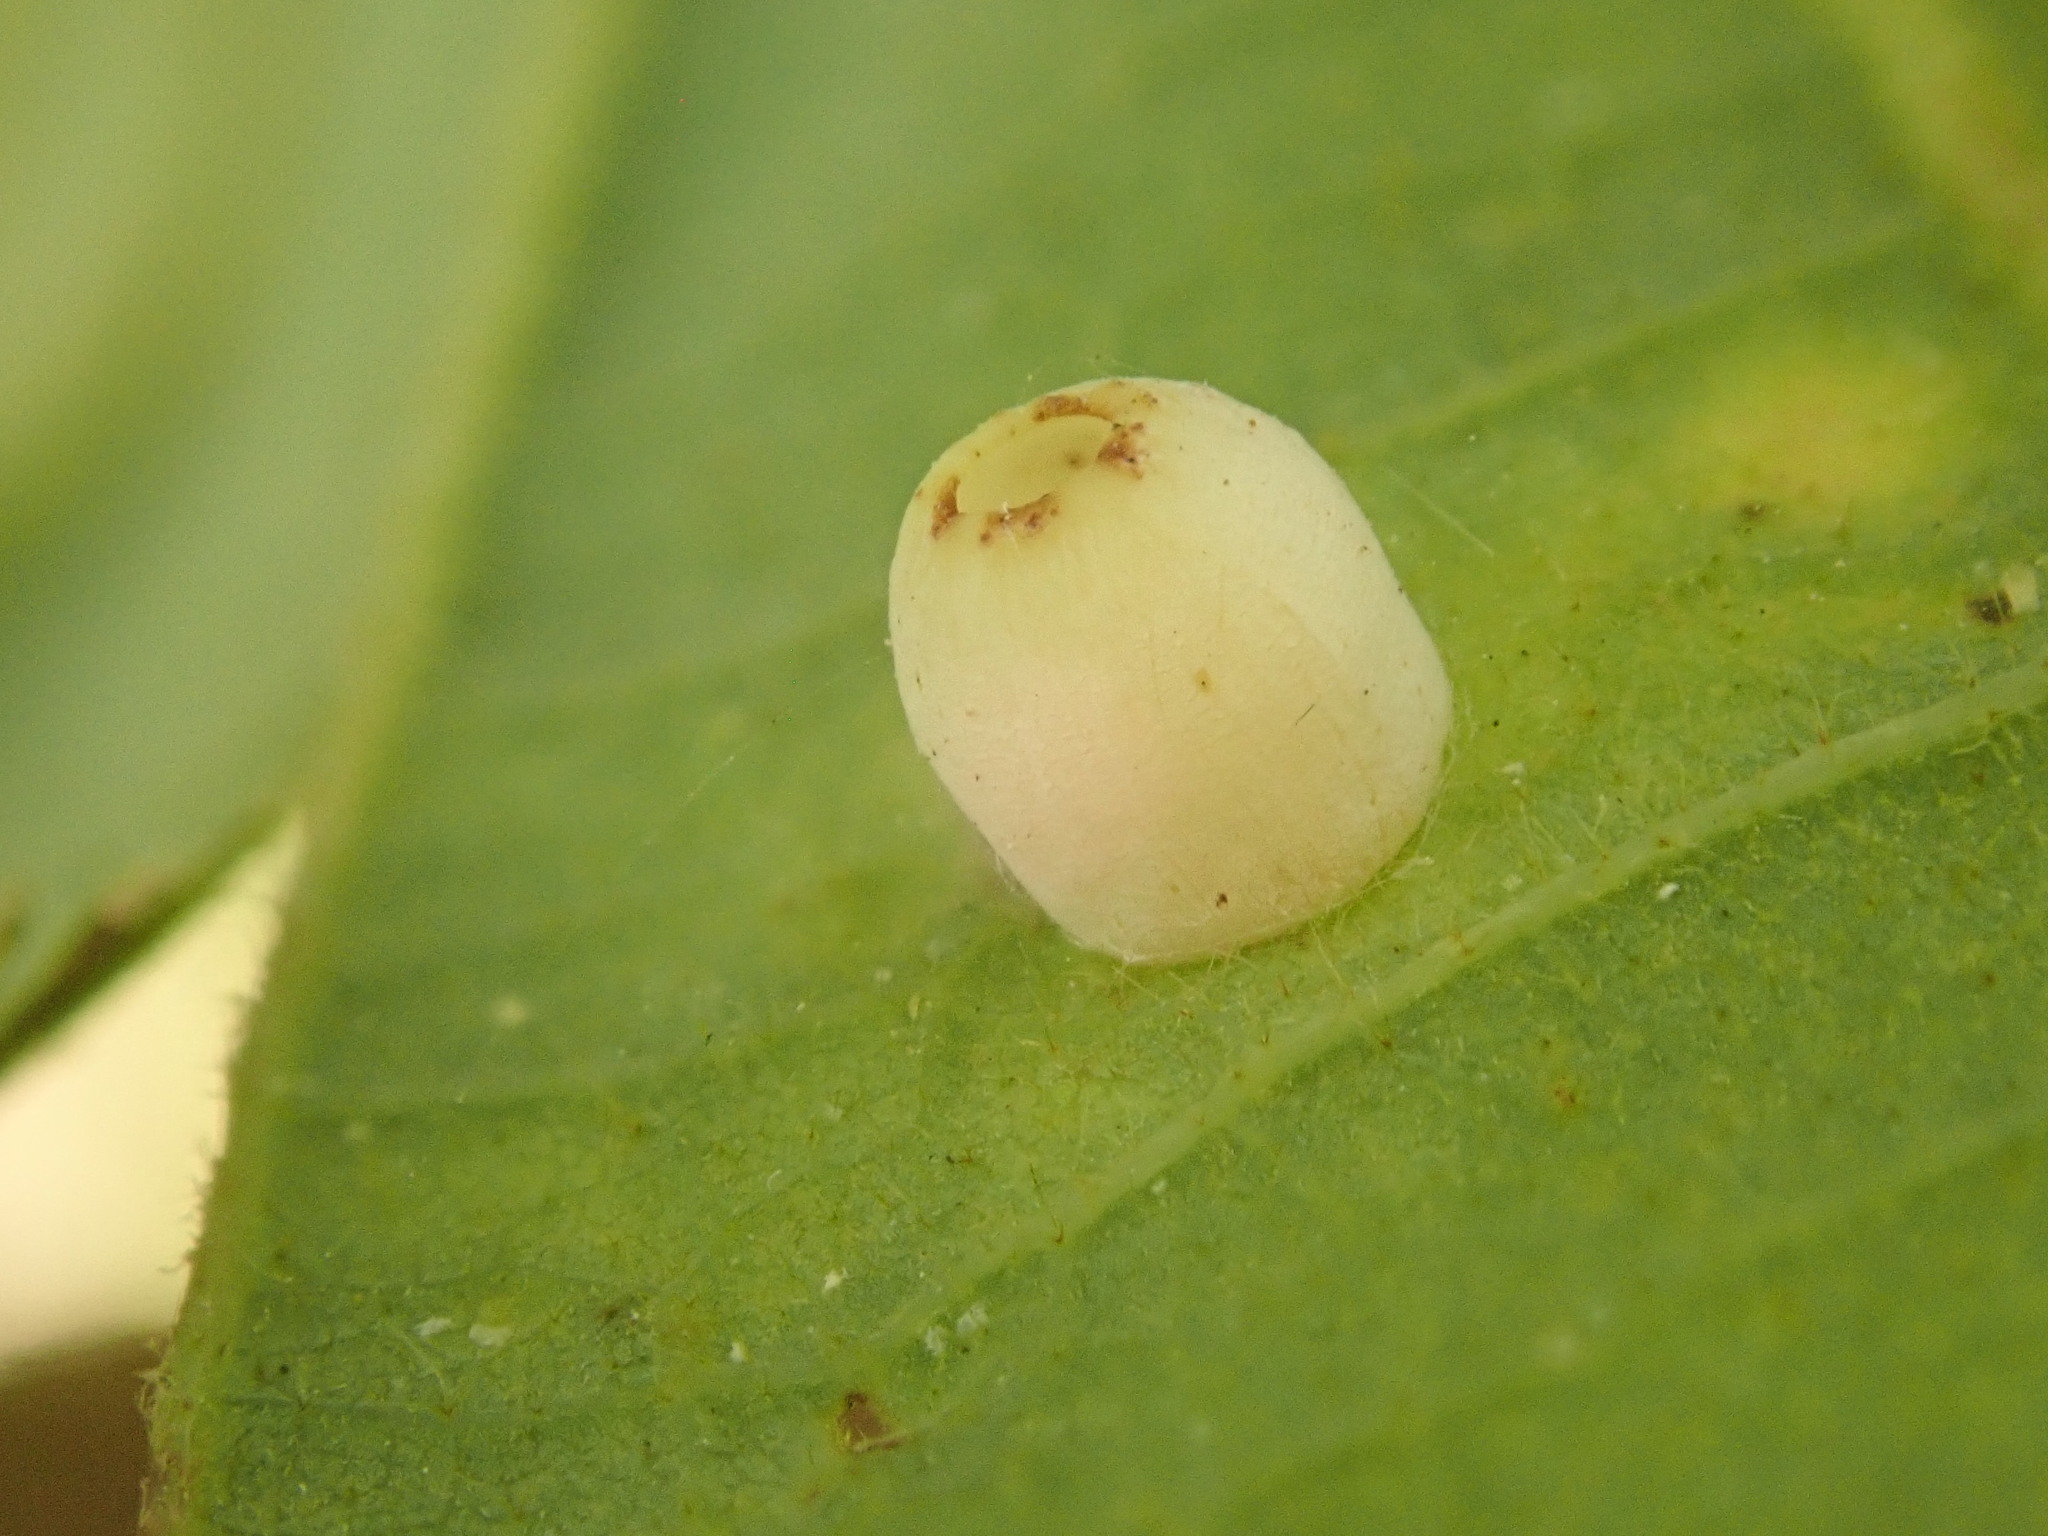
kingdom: Animalia
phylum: Arthropoda
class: Insecta
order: Hymenoptera
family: Cynipidae
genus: Phylloteras
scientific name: Phylloteras
